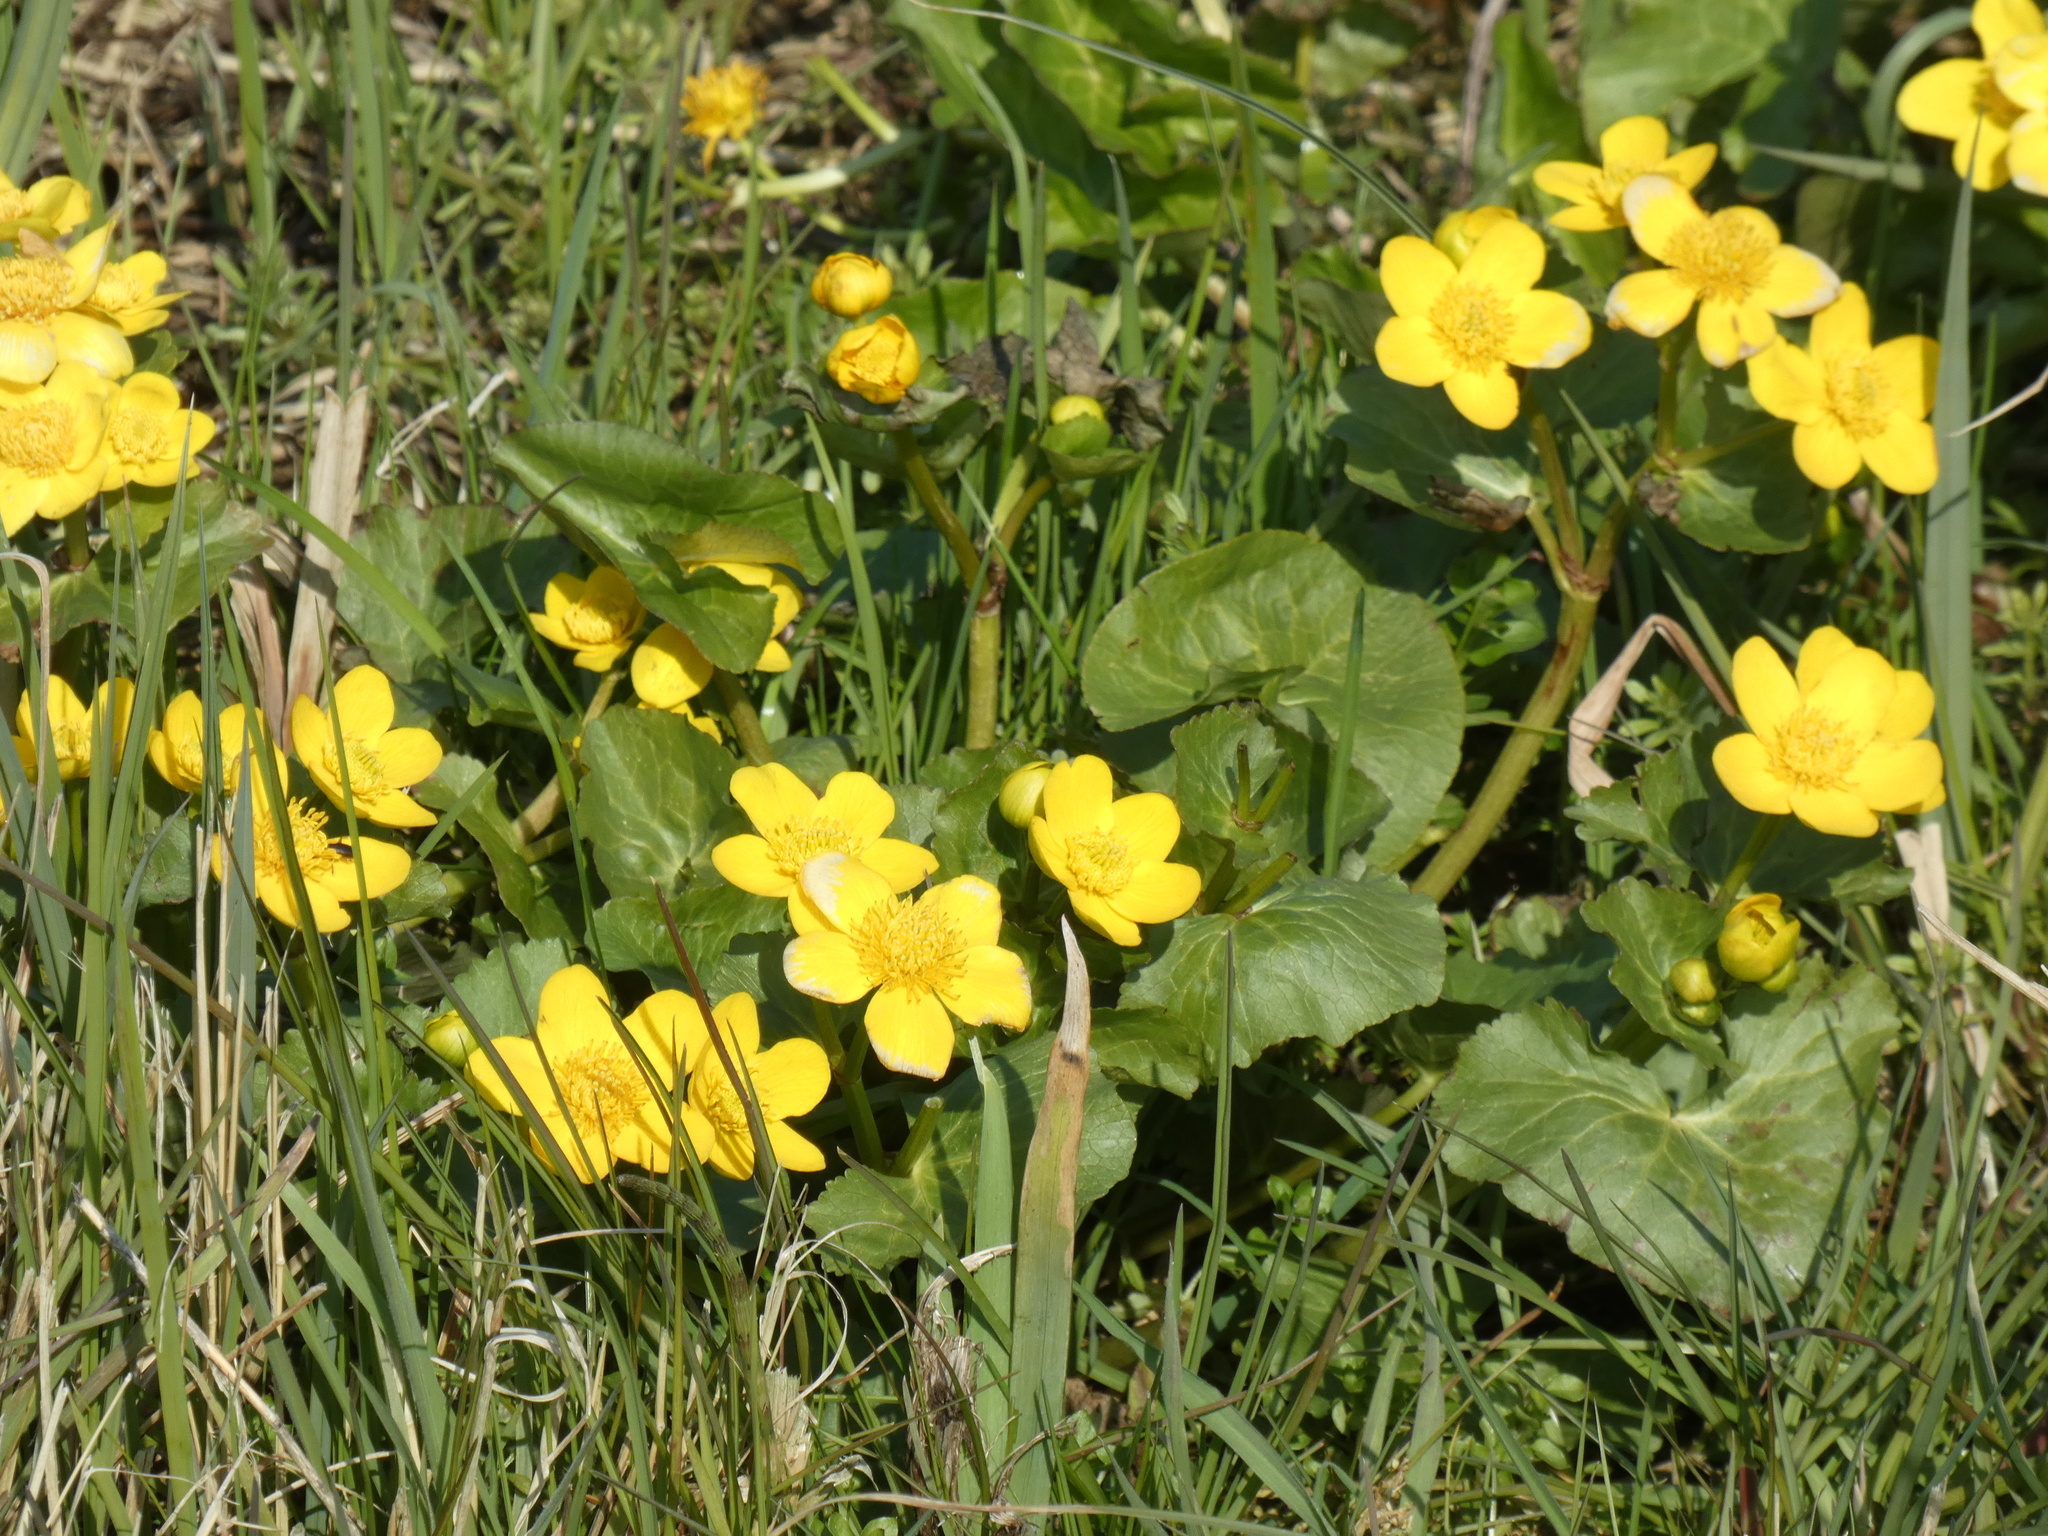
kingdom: Plantae
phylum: Tracheophyta
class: Magnoliopsida
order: Ranunculales
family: Ranunculaceae
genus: Caltha
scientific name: Caltha palustris
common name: Marsh marigold
